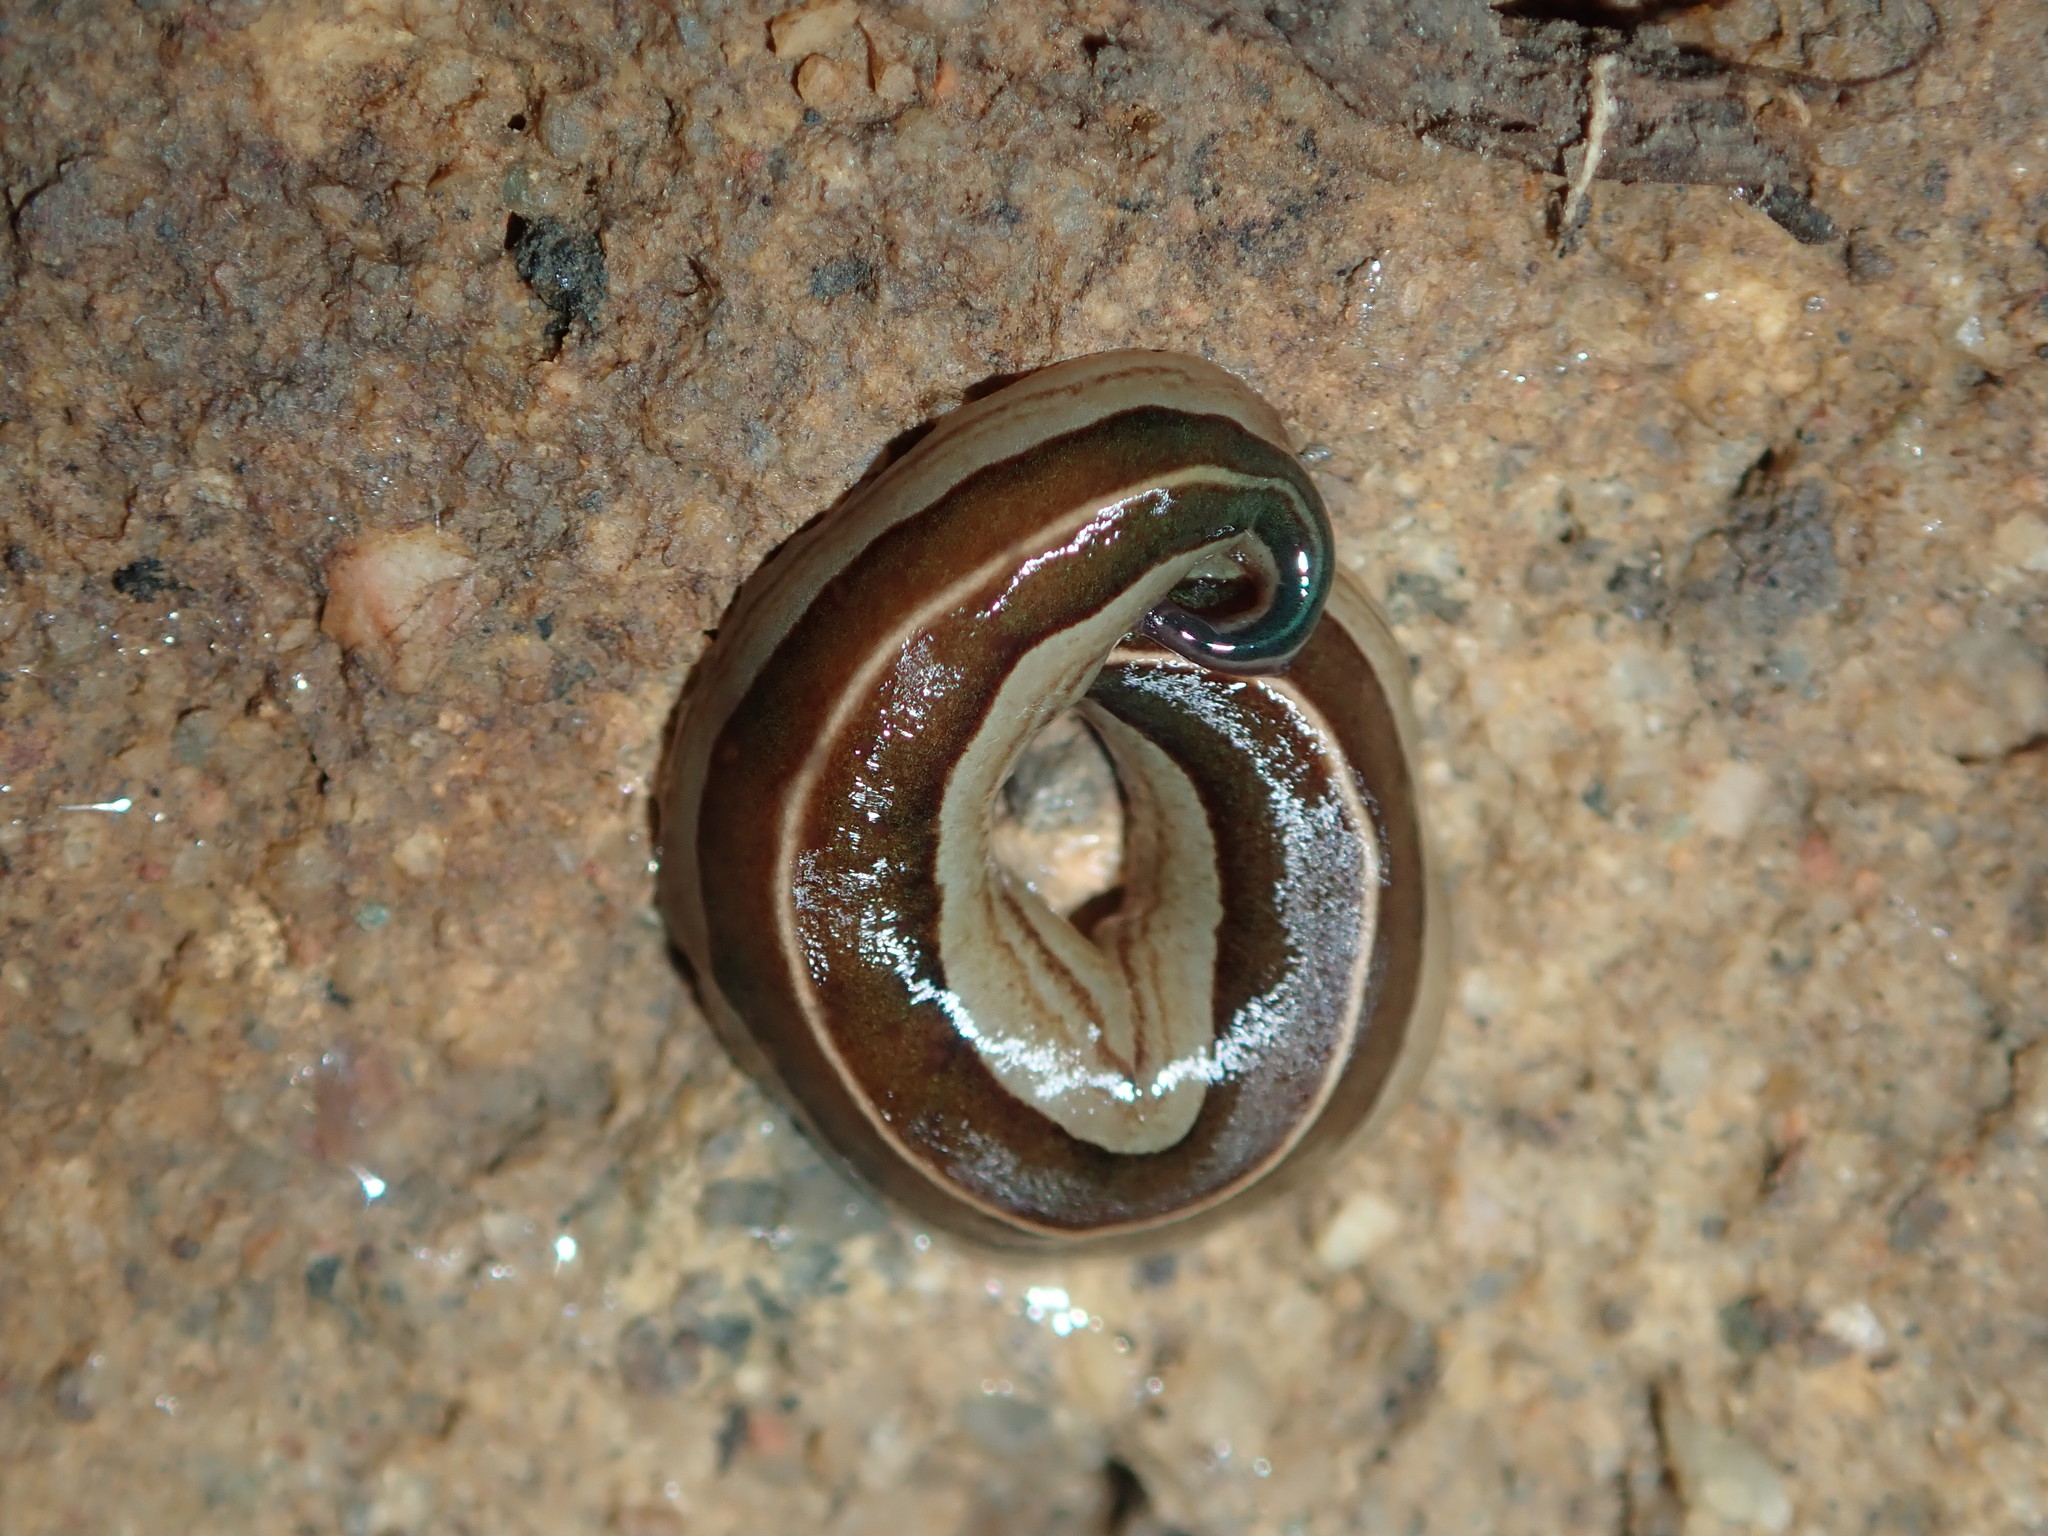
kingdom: Animalia
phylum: Platyhelminthes
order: Tricladida
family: Geoplanidae
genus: Australopacifica
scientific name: Australopacifica scaphoidea
